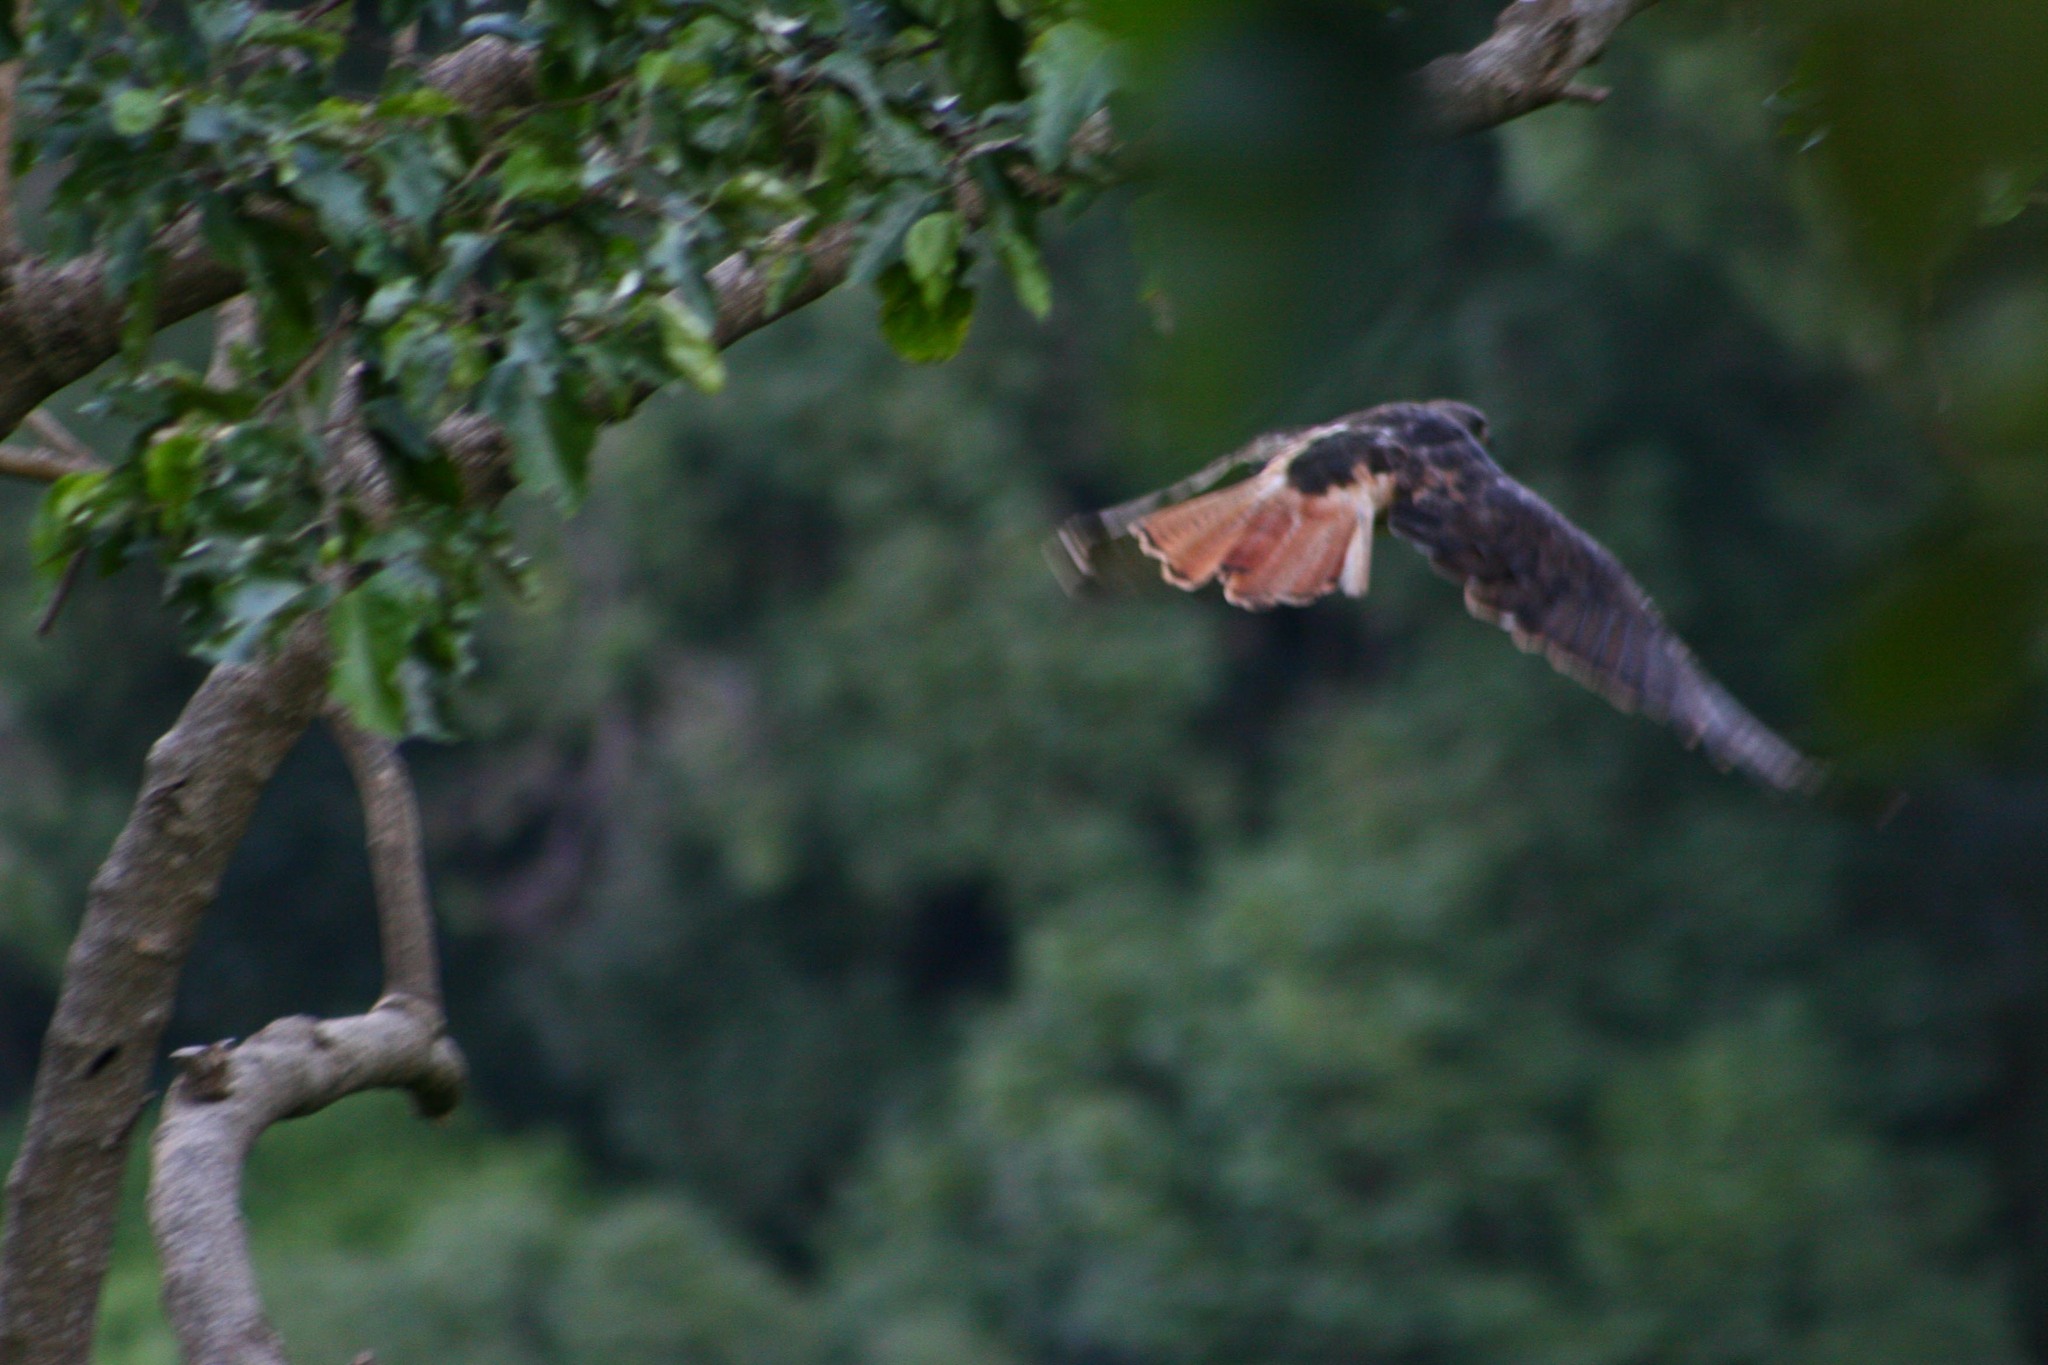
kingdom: Animalia
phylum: Chordata
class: Aves
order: Accipitriformes
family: Accipitridae
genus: Buteo
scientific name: Buteo jamaicensis
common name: Red-tailed hawk
